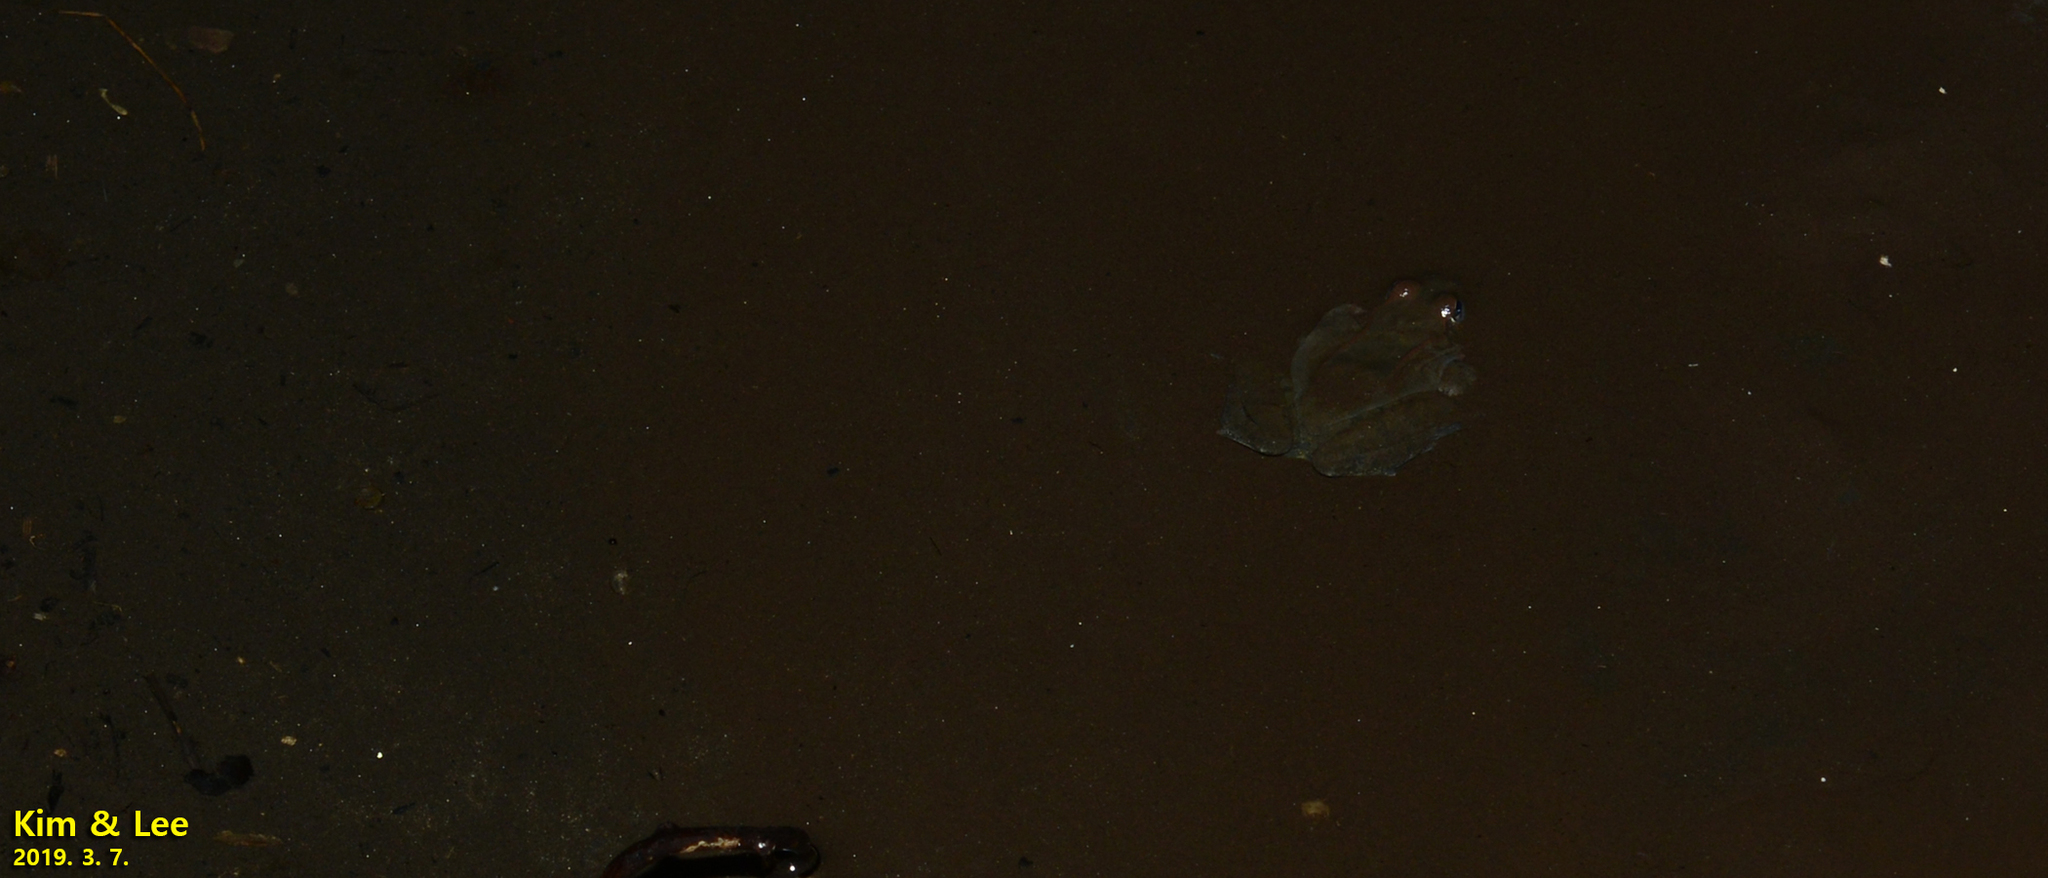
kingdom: Animalia
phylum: Chordata
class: Amphibia
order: Anura
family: Ranidae
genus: Rana
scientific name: Rana uenoi
